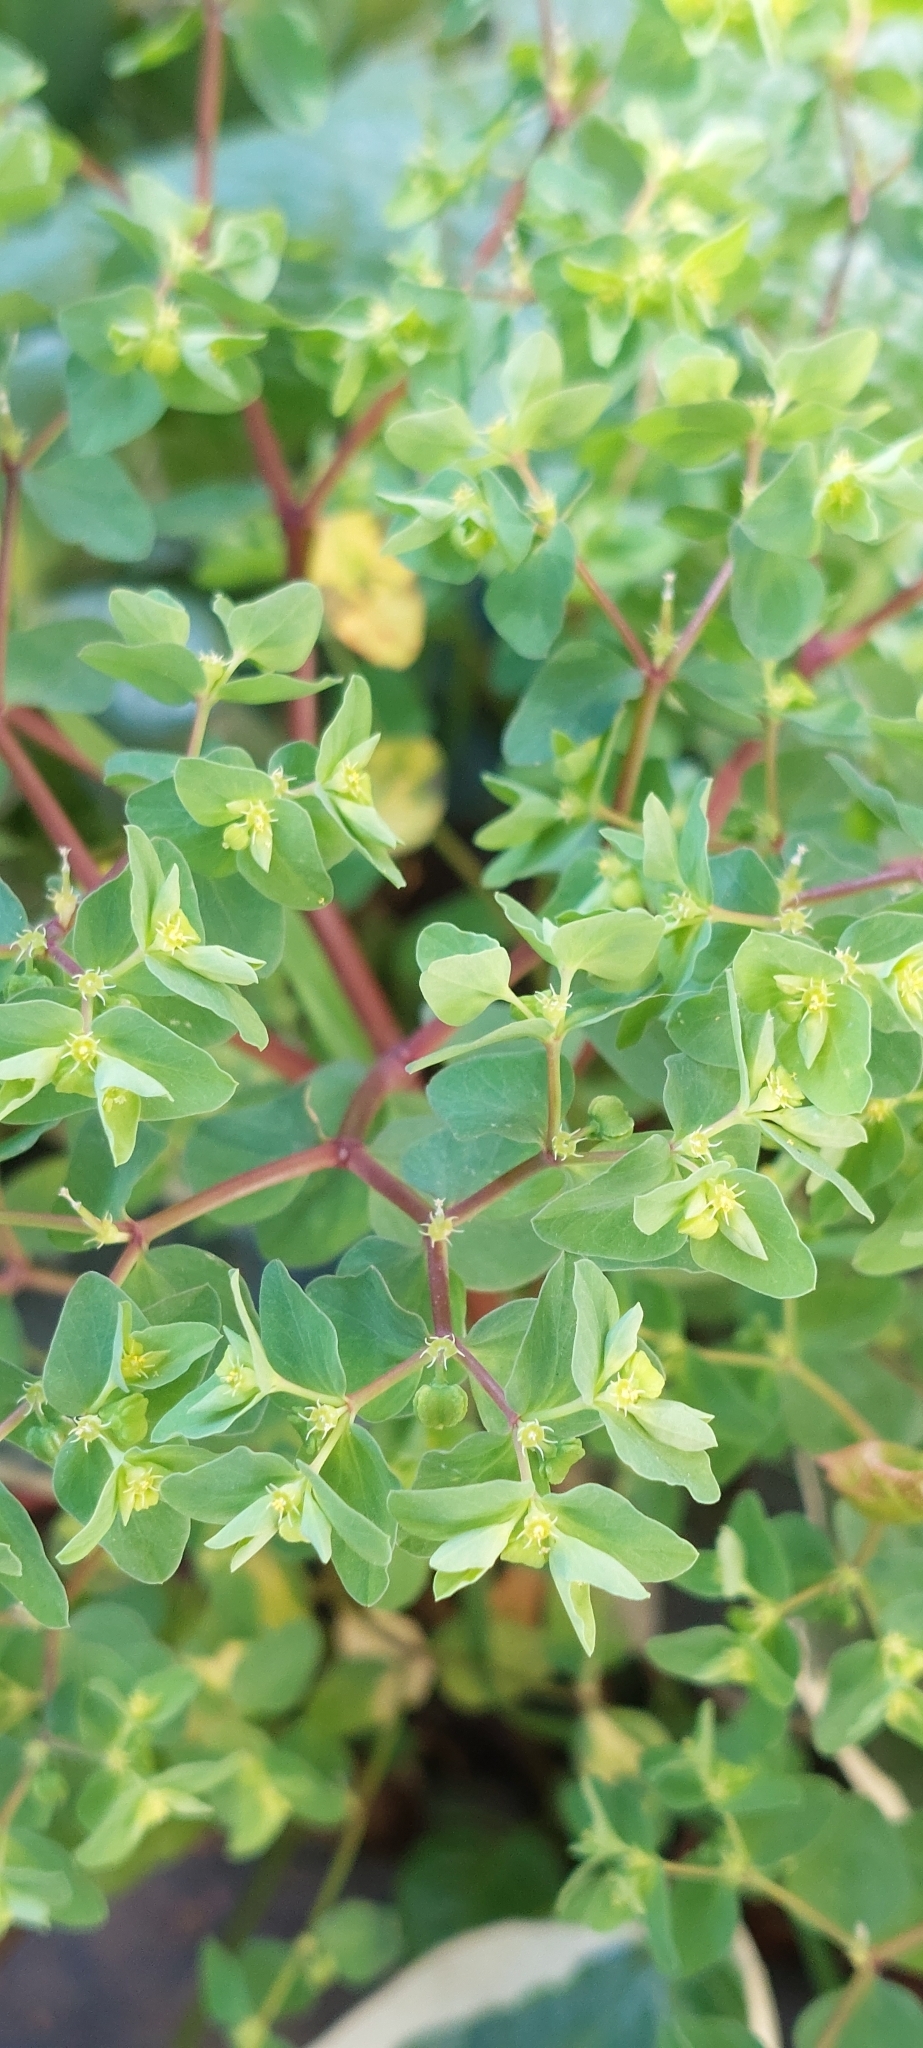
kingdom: Plantae
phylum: Tracheophyta
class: Magnoliopsida
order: Malpighiales
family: Euphorbiaceae
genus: Euphorbia
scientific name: Euphorbia peplus
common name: Petty spurge
